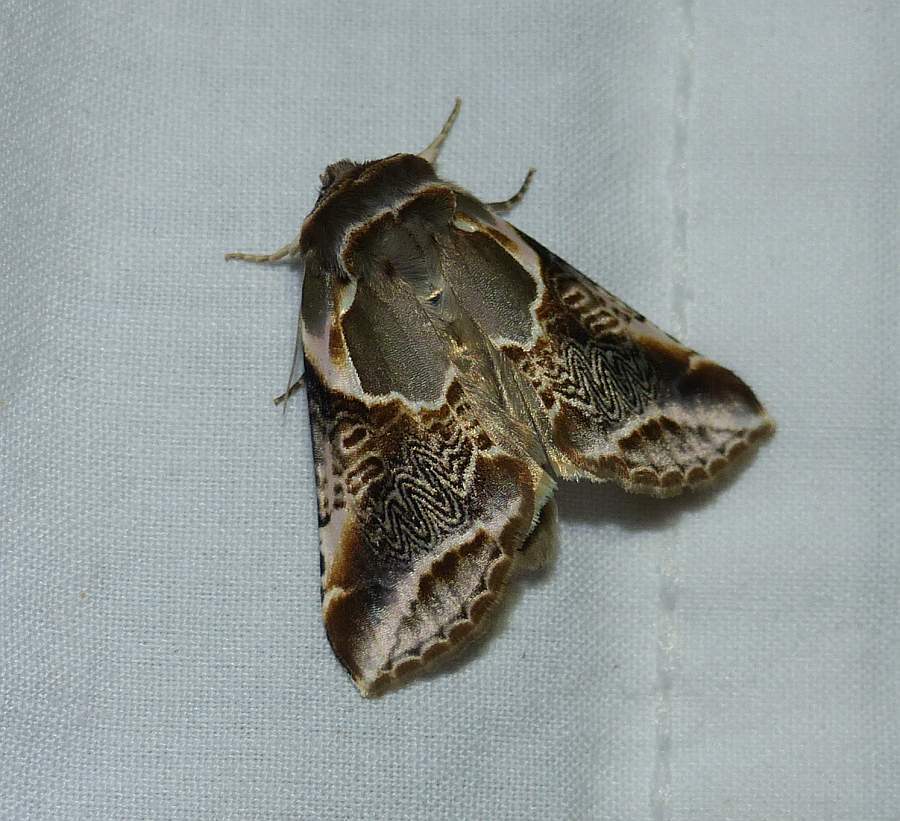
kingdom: Animalia
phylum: Arthropoda
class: Insecta
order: Lepidoptera
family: Drepanidae
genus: Habrosyne
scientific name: Habrosyne scripta
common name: Lettered habrosyne moth
